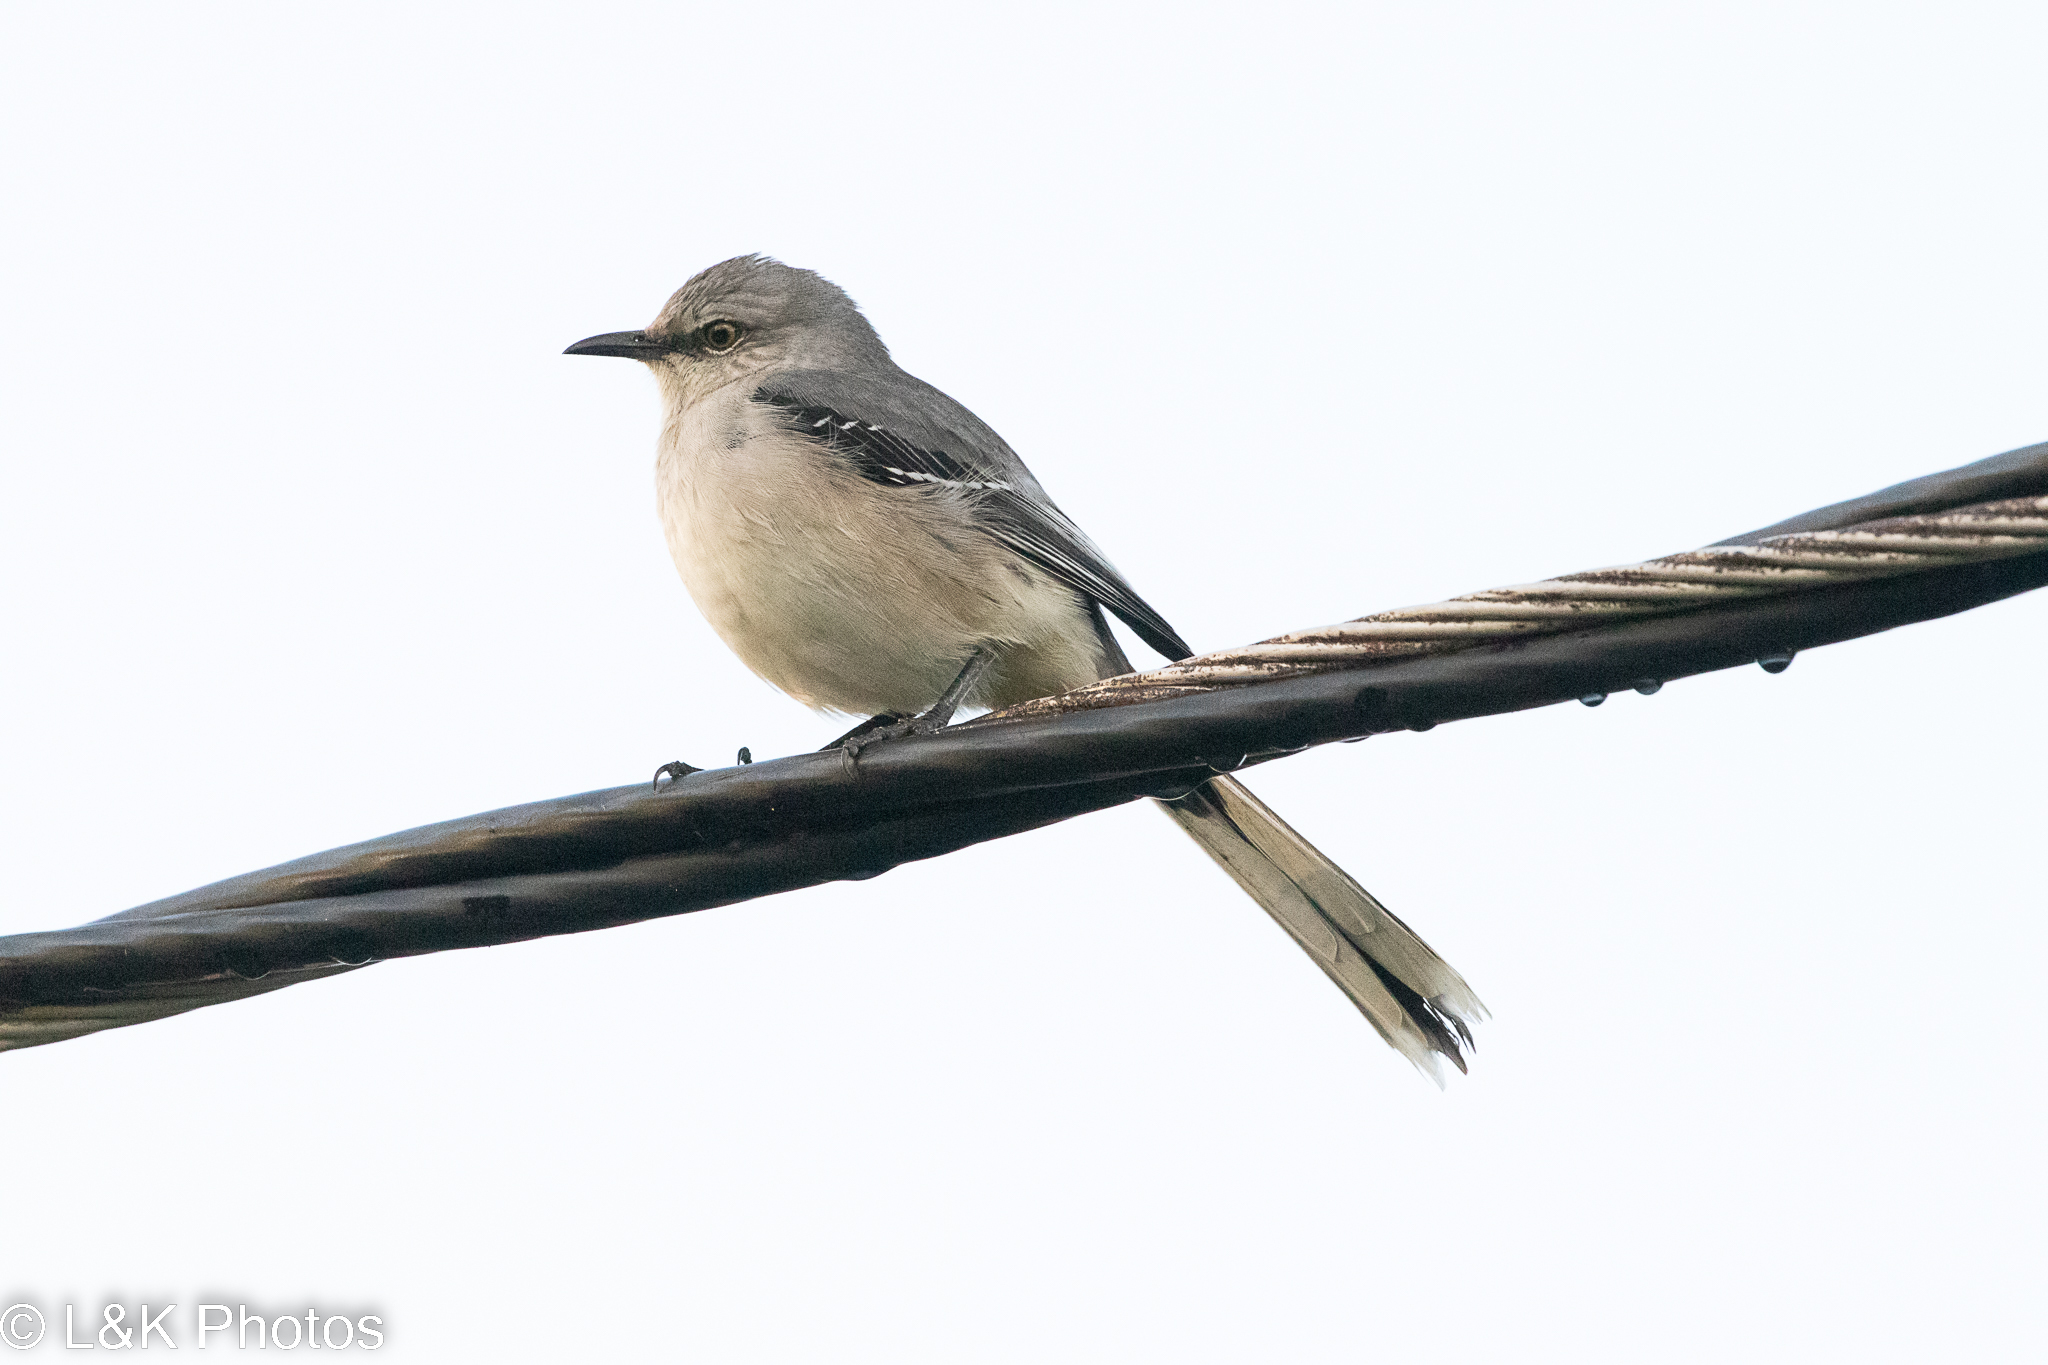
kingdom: Animalia
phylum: Chordata
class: Aves
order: Passeriformes
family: Mimidae
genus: Mimus
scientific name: Mimus gilvus
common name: Tropical mockingbird
